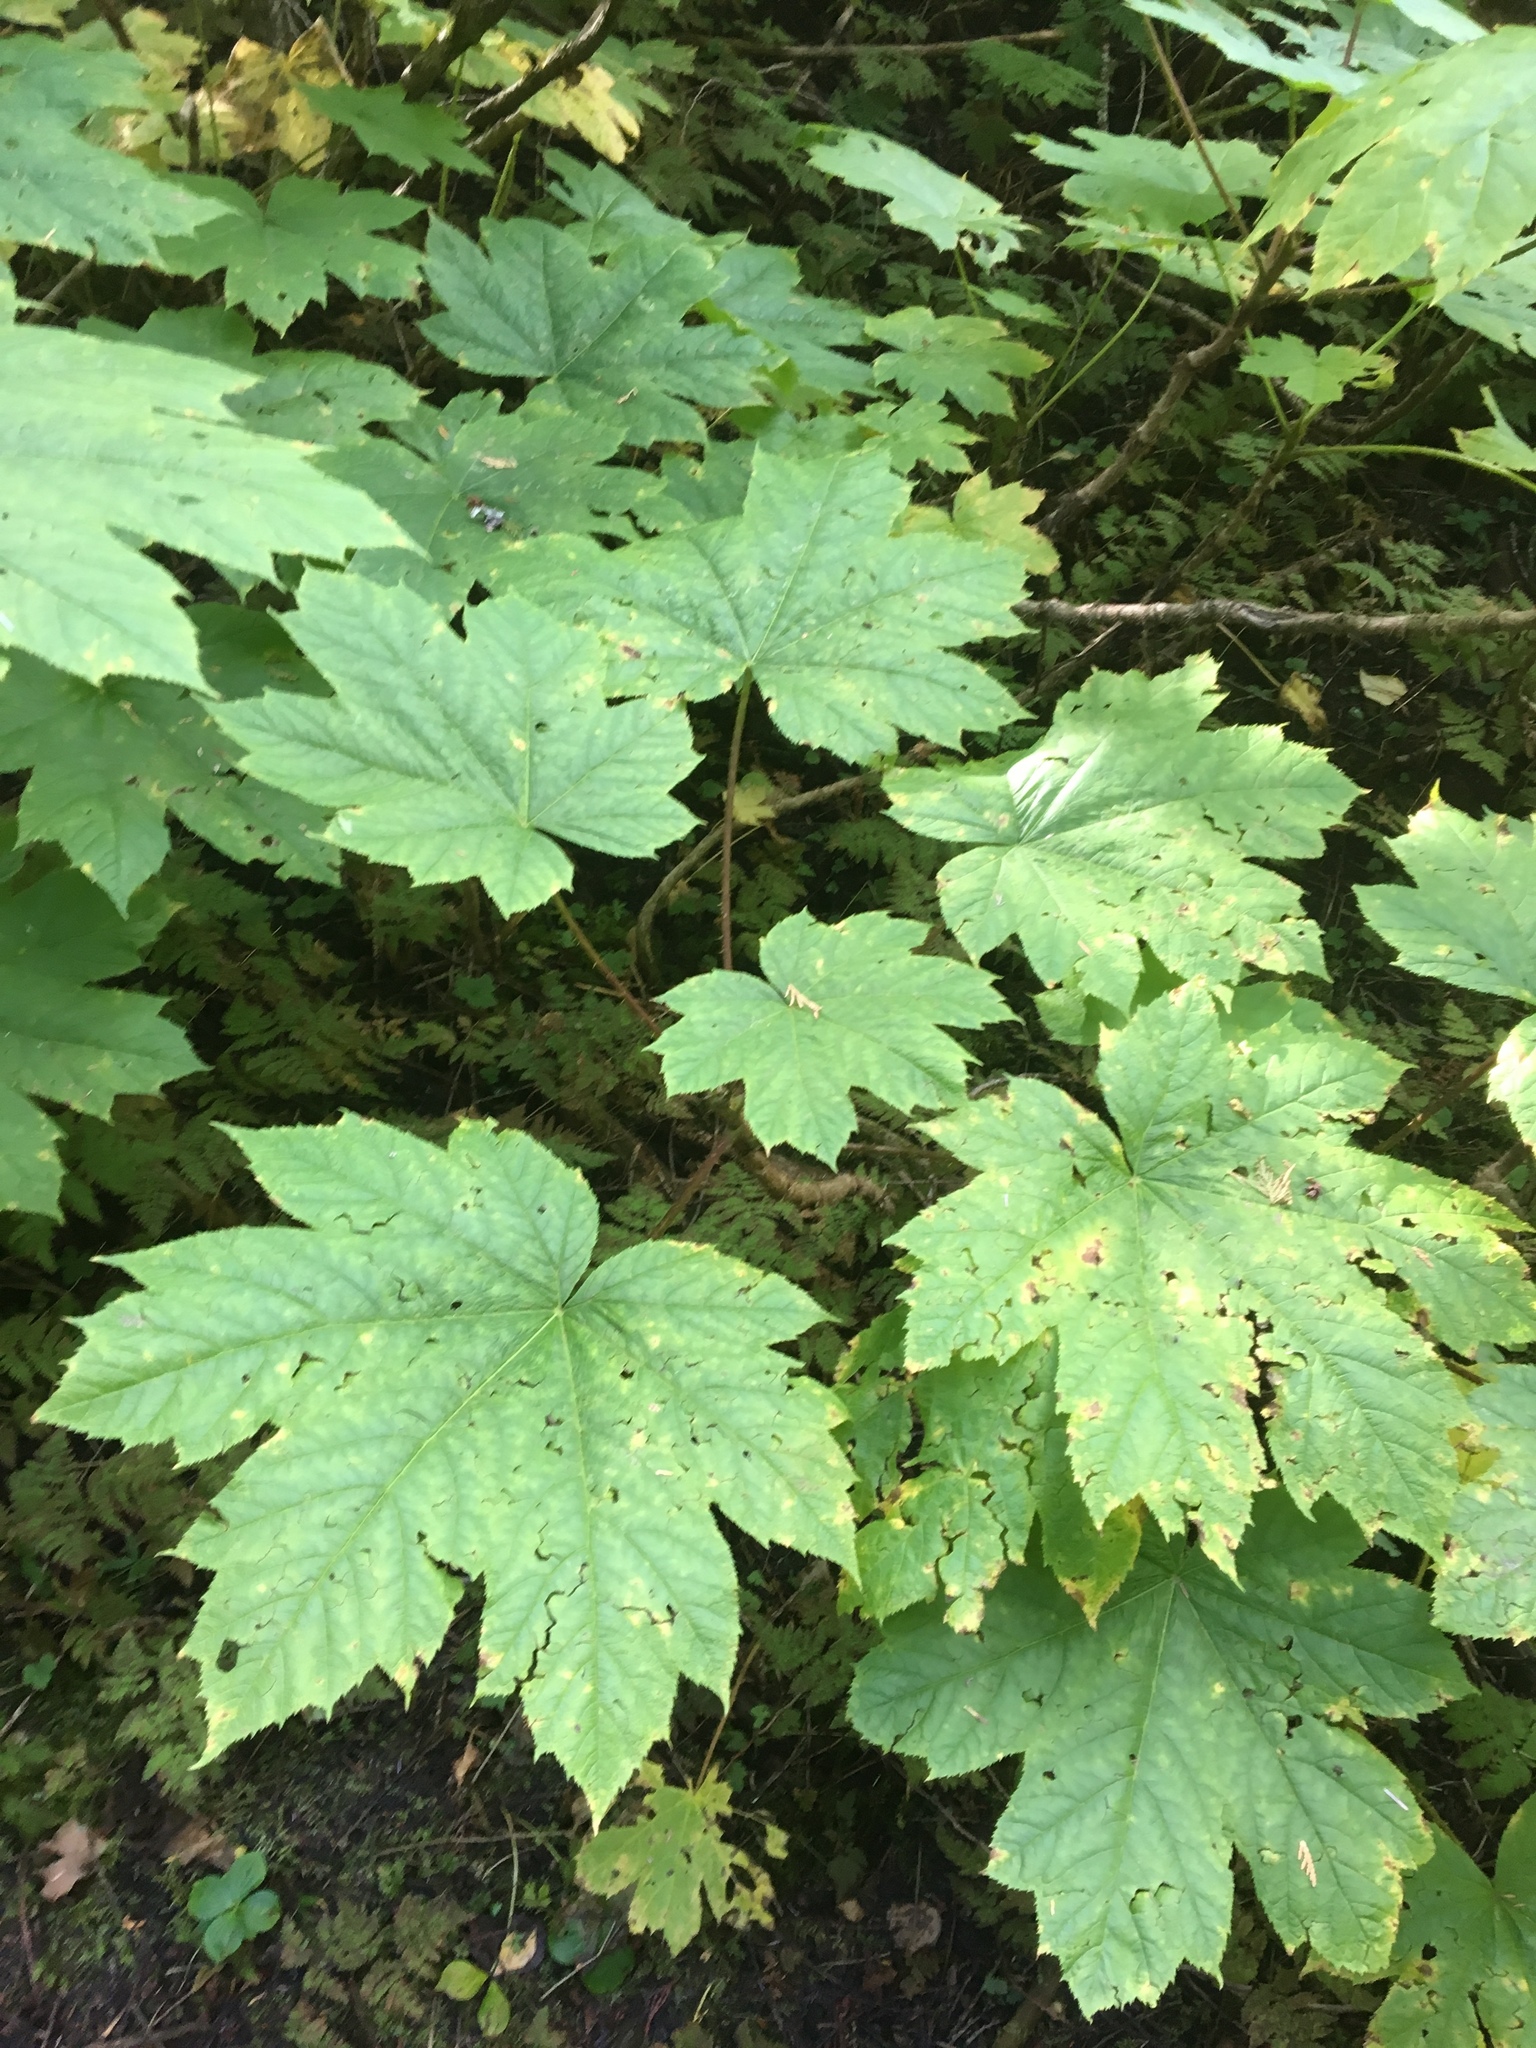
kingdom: Plantae
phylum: Tracheophyta
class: Magnoliopsida
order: Apiales
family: Araliaceae
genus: Oplopanax
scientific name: Oplopanax horridus
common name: Devil's walking-stick
